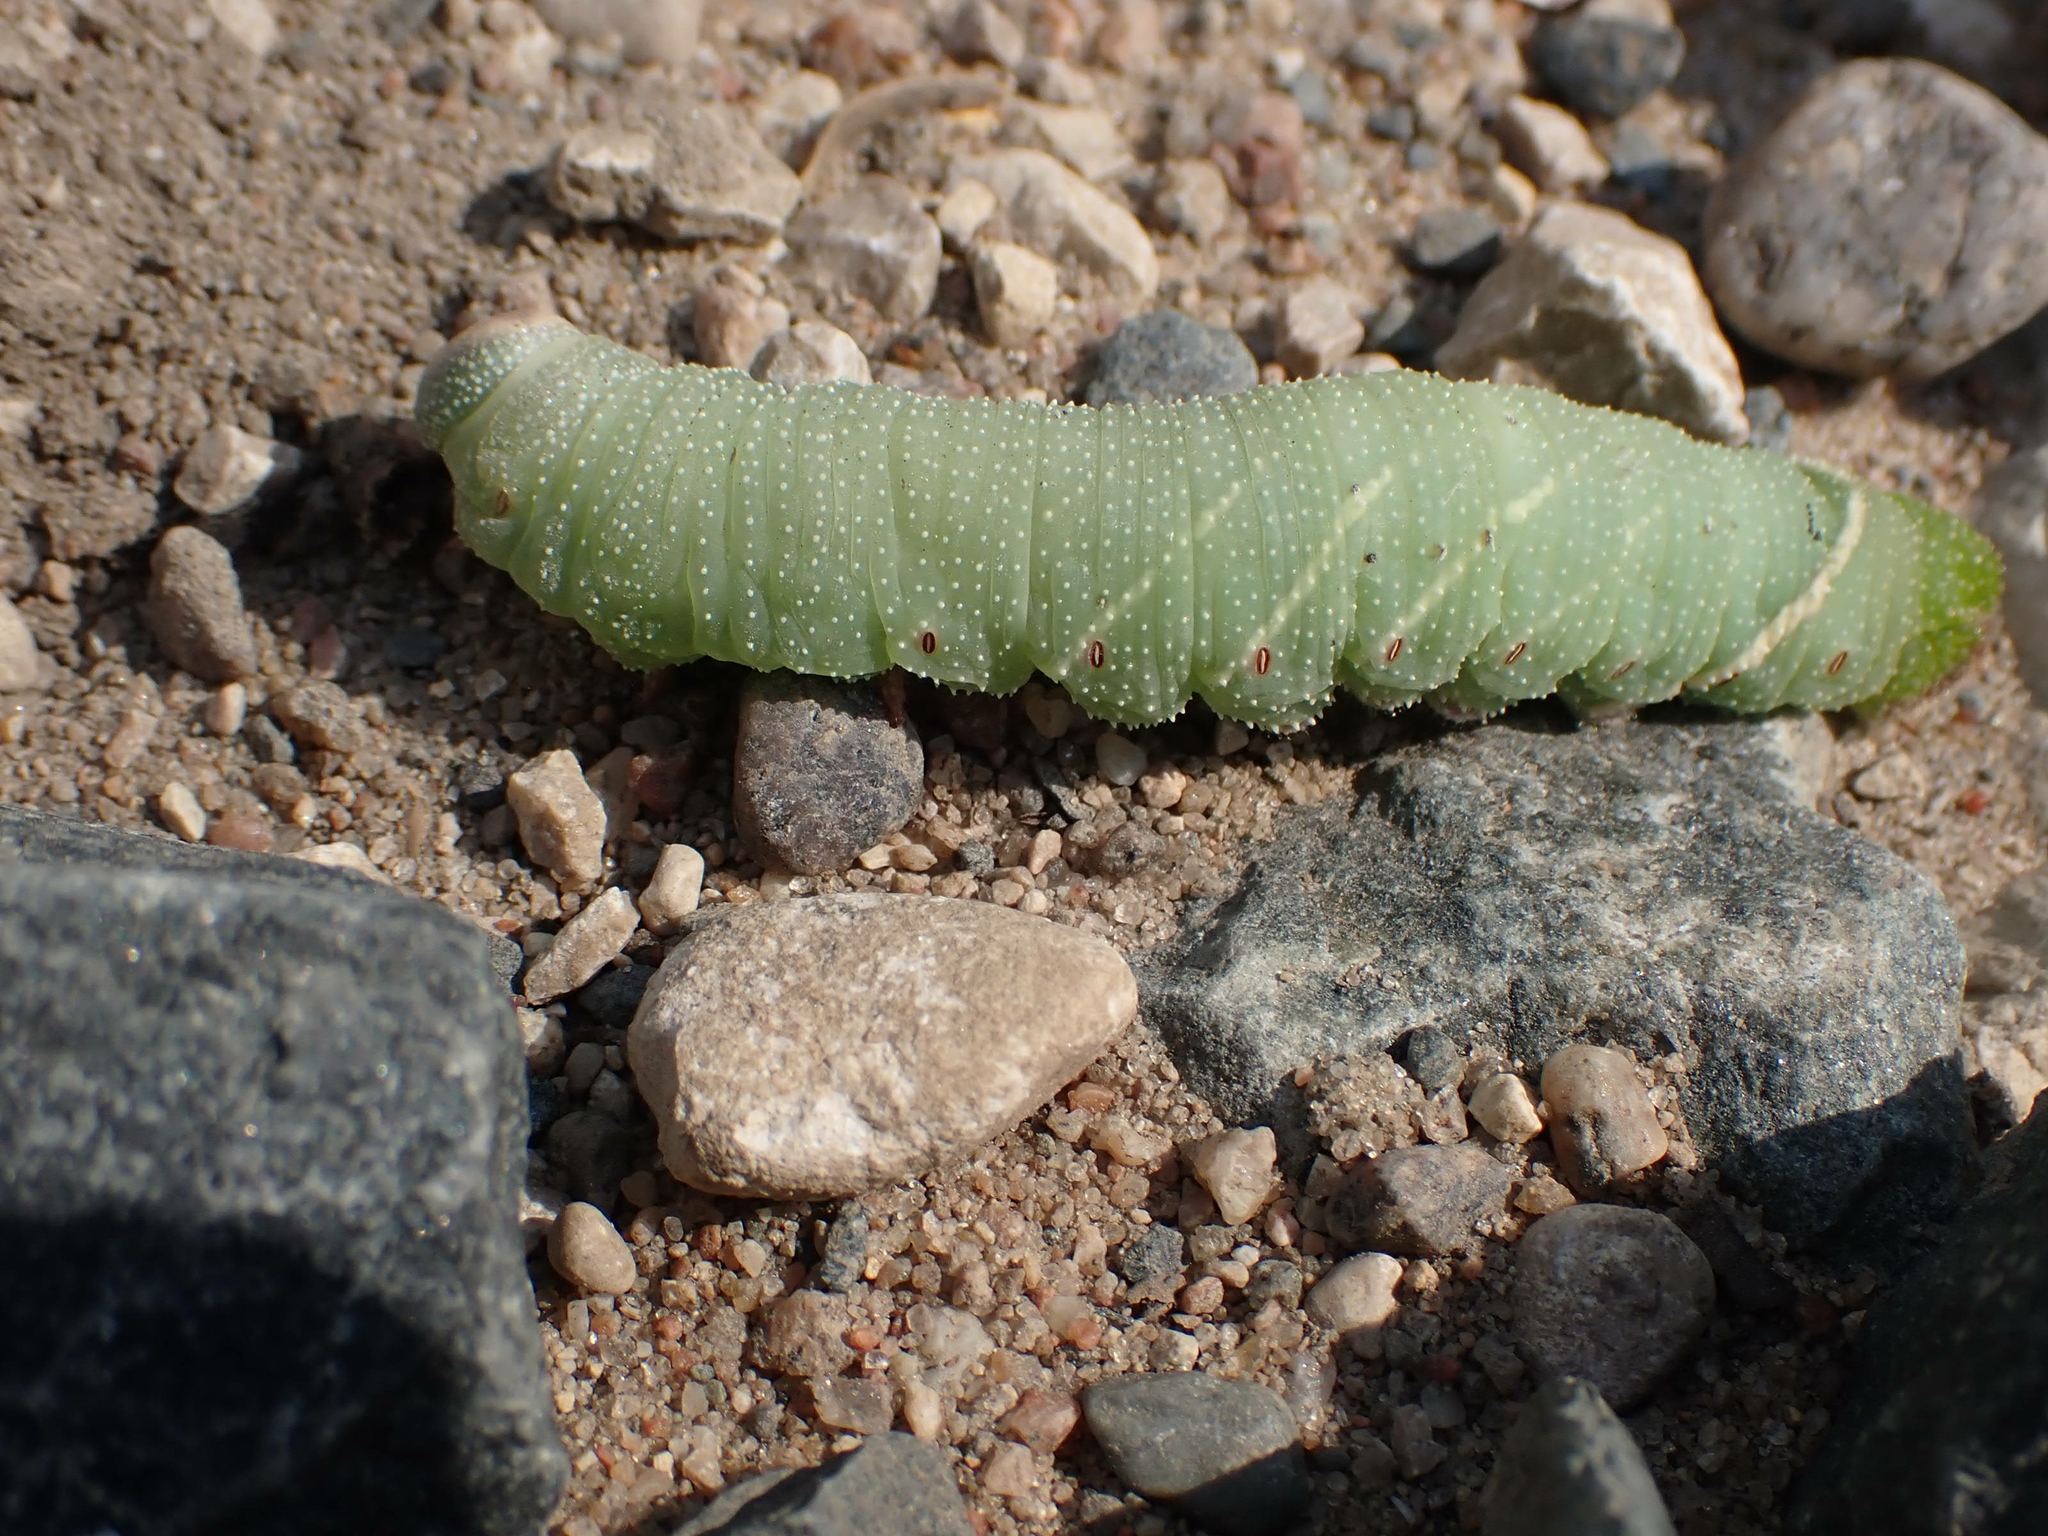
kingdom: Animalia
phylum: Arthropoda
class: Insecta
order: Lepidoptera
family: Sphingidae
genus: Pachysphinx
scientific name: Pachysphinx modesta
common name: Big poplar sphinx
